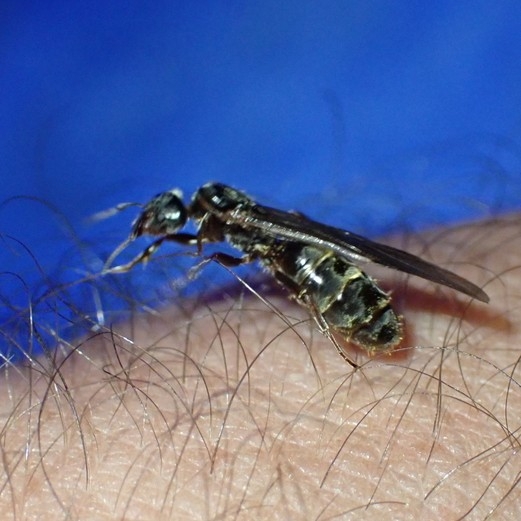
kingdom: Animalia
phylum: Arthropoda
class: Insecta
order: Hymenoptera
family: Formicidae
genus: Liometopum
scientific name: Liometopum microcephalum
